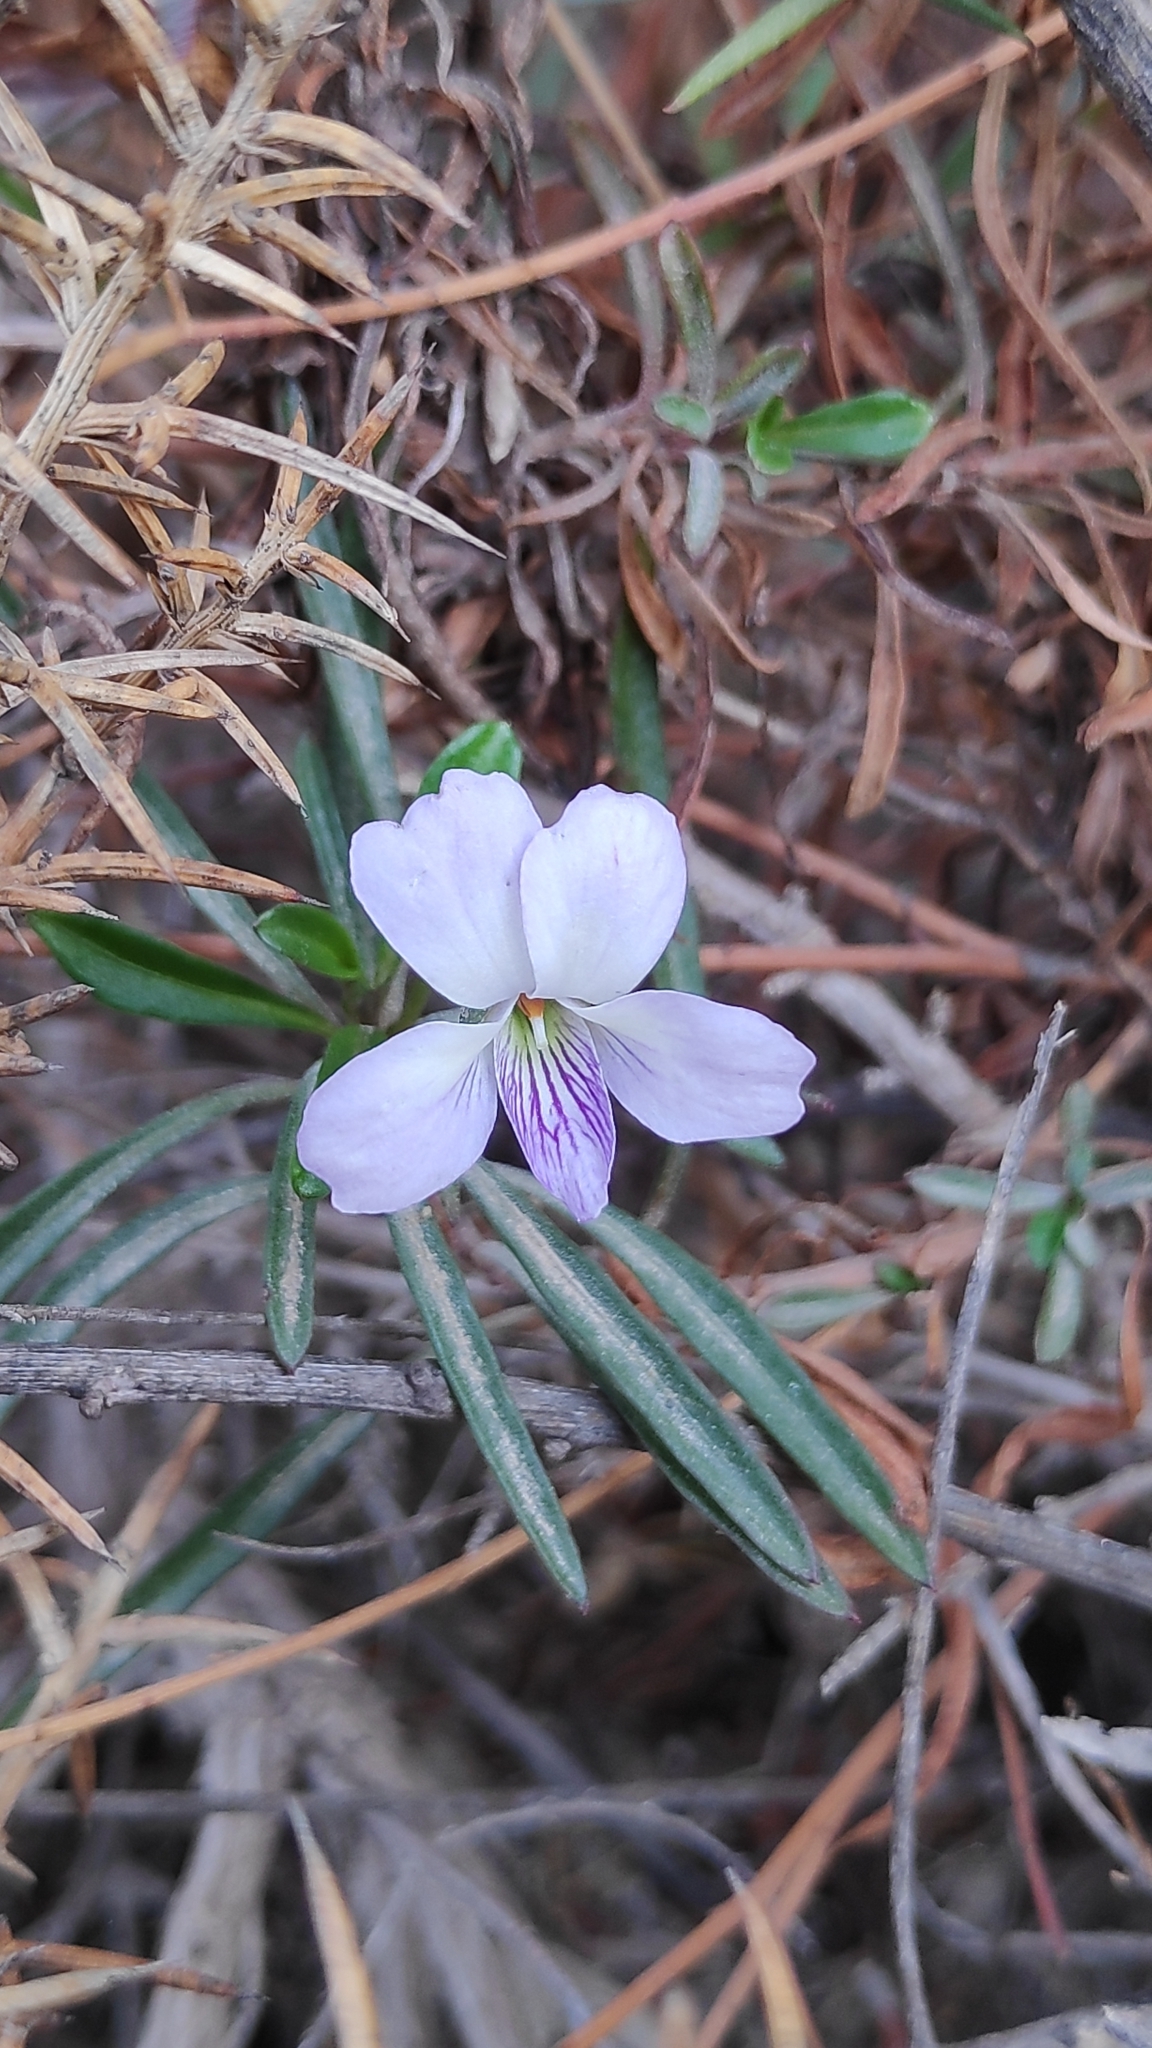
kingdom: Plantae
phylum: Tracheophyta
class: Magnoliopsida
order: Malpighiales
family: Violaceae
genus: Viola
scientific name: Viola arborescens
